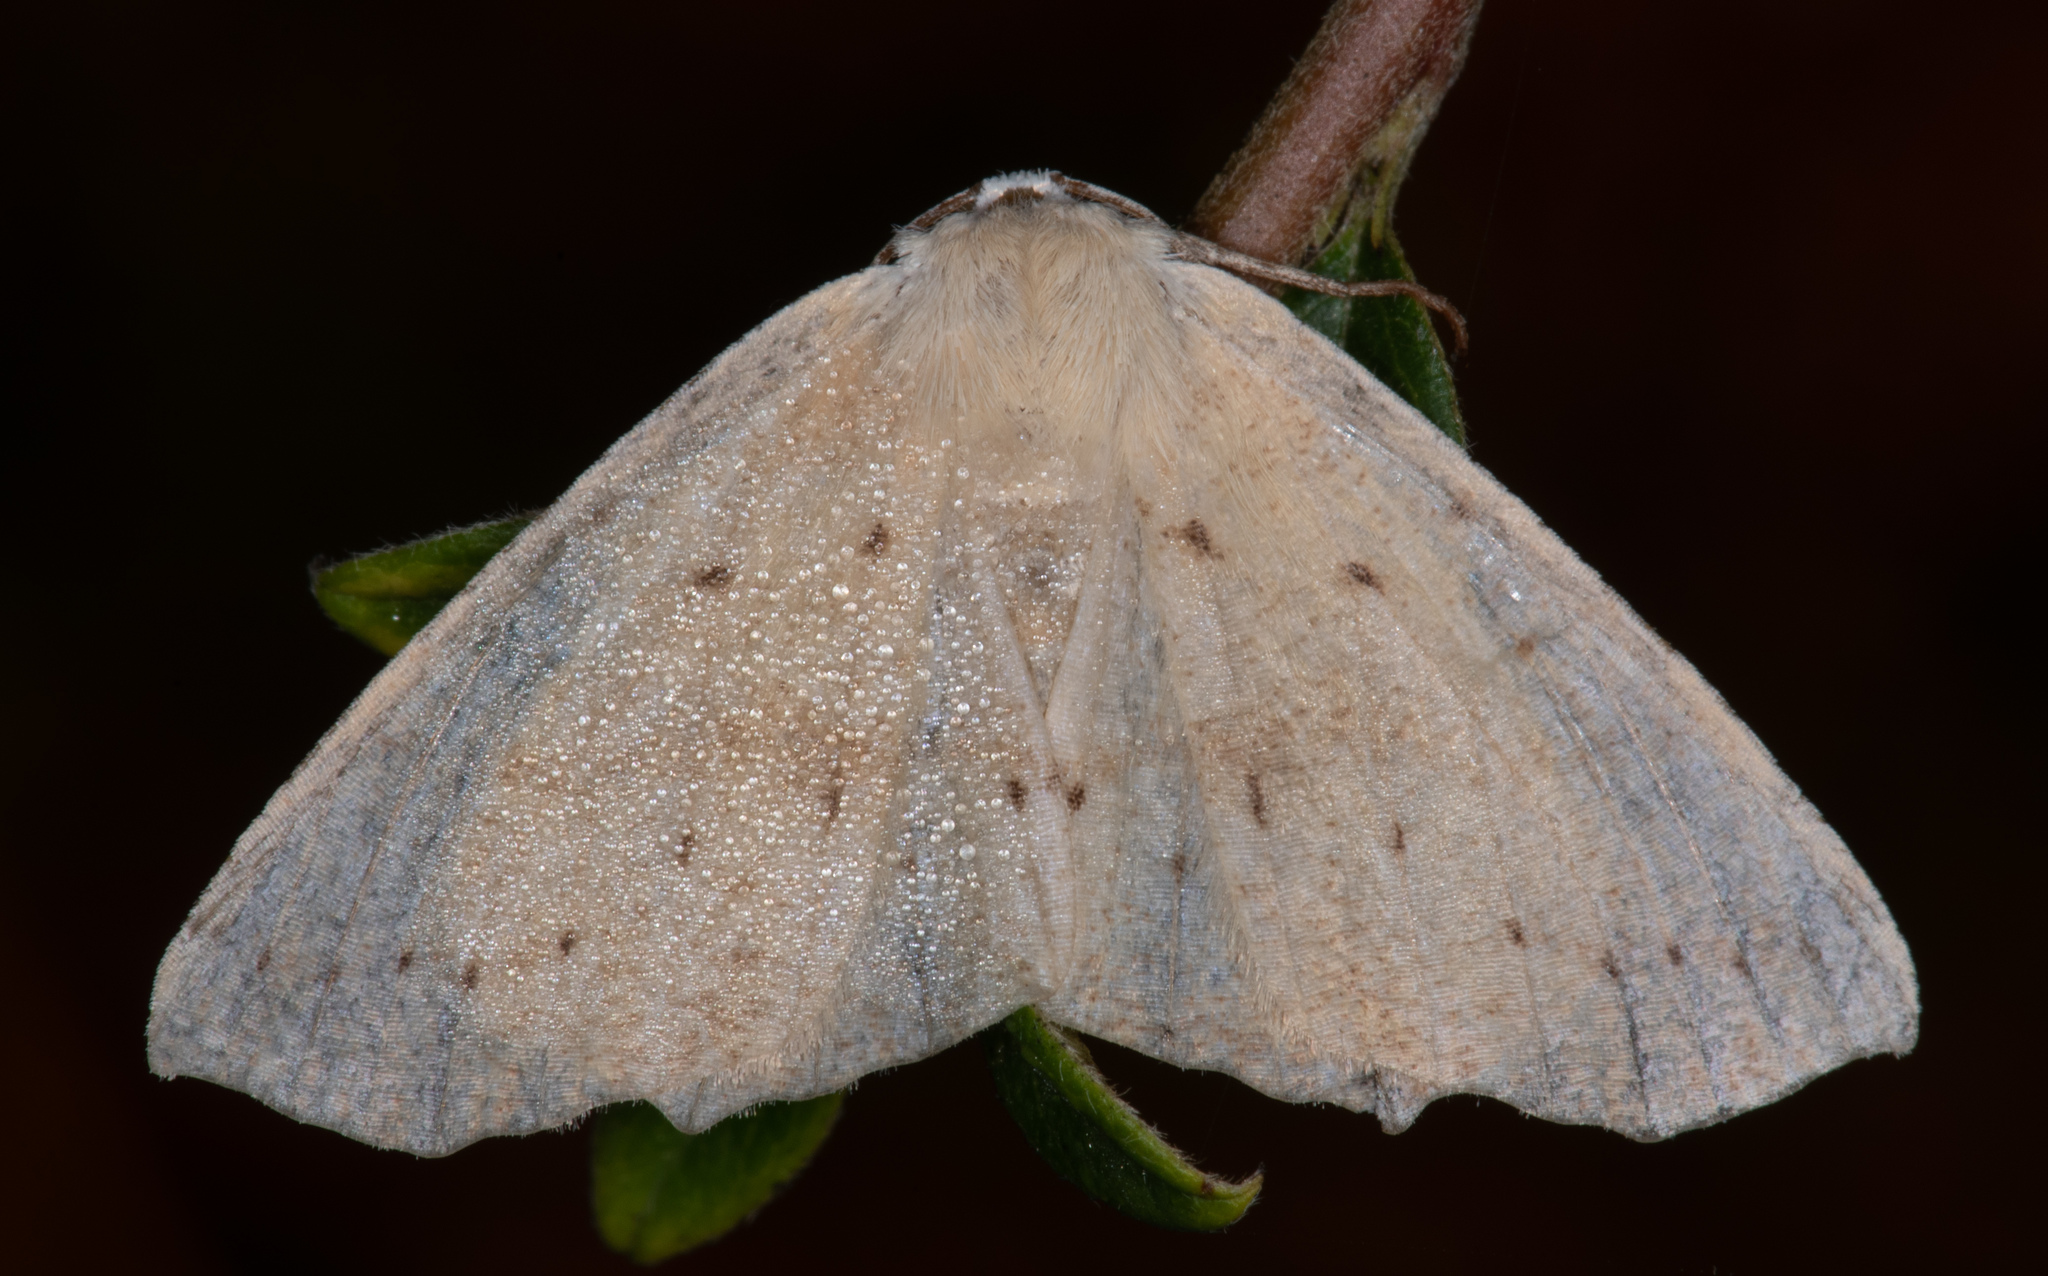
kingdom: Animalia
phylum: Arthropoda
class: Insecta
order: Lepidoptera
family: Geometridae
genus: Sabulodes
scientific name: Sabulodes aegrotata
